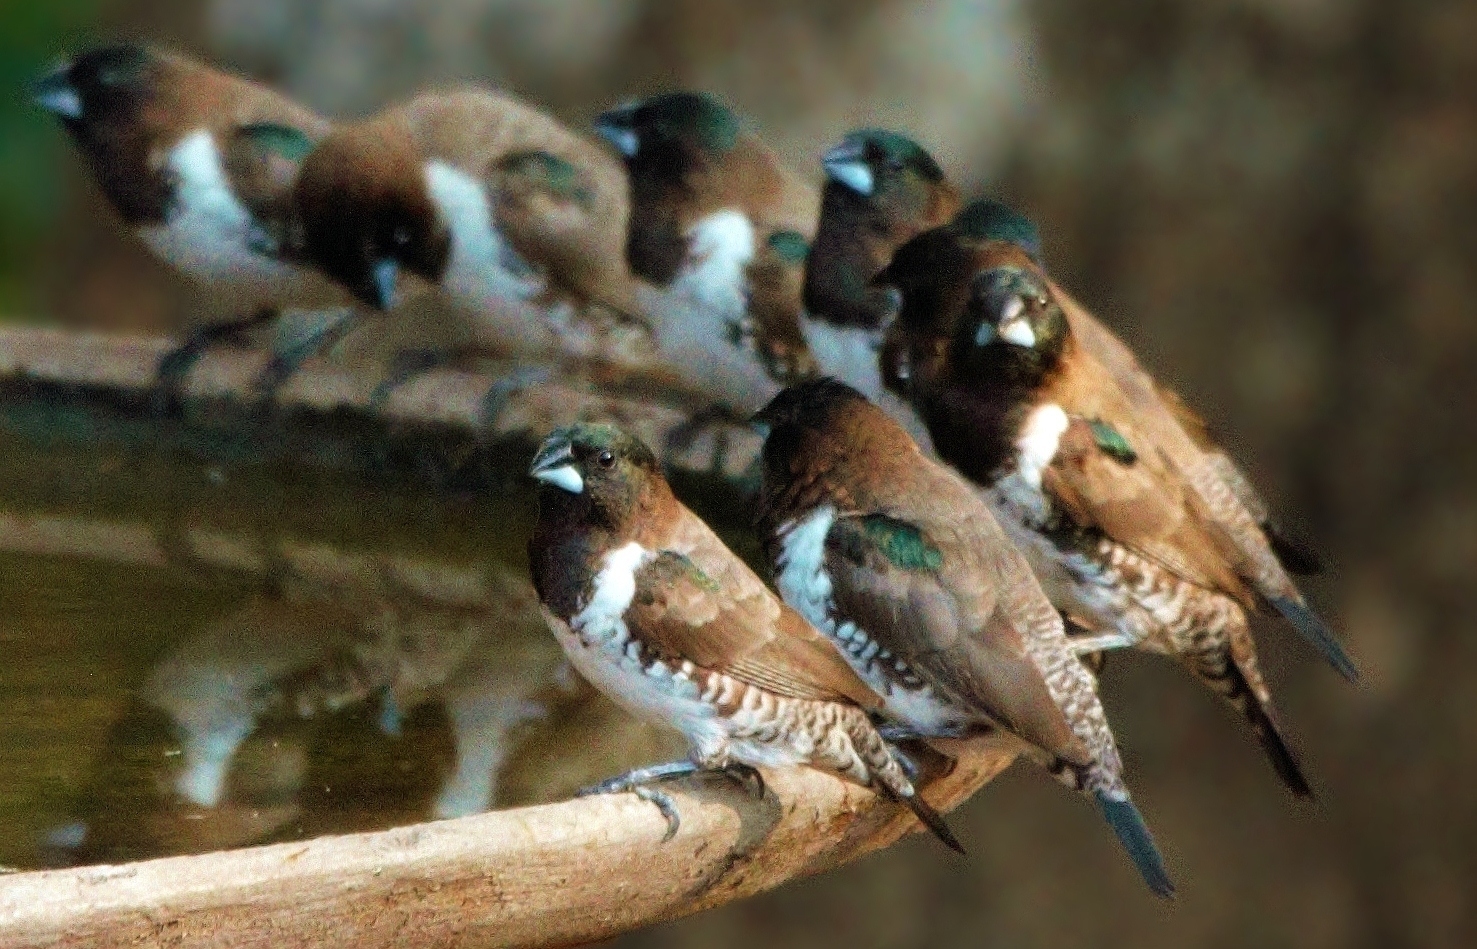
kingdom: Animalia
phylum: Chordata
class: Aves
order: Passeriformes
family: Estrildidae
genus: Lonchura
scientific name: Lonchura cucullata
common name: Bronze mannikin
